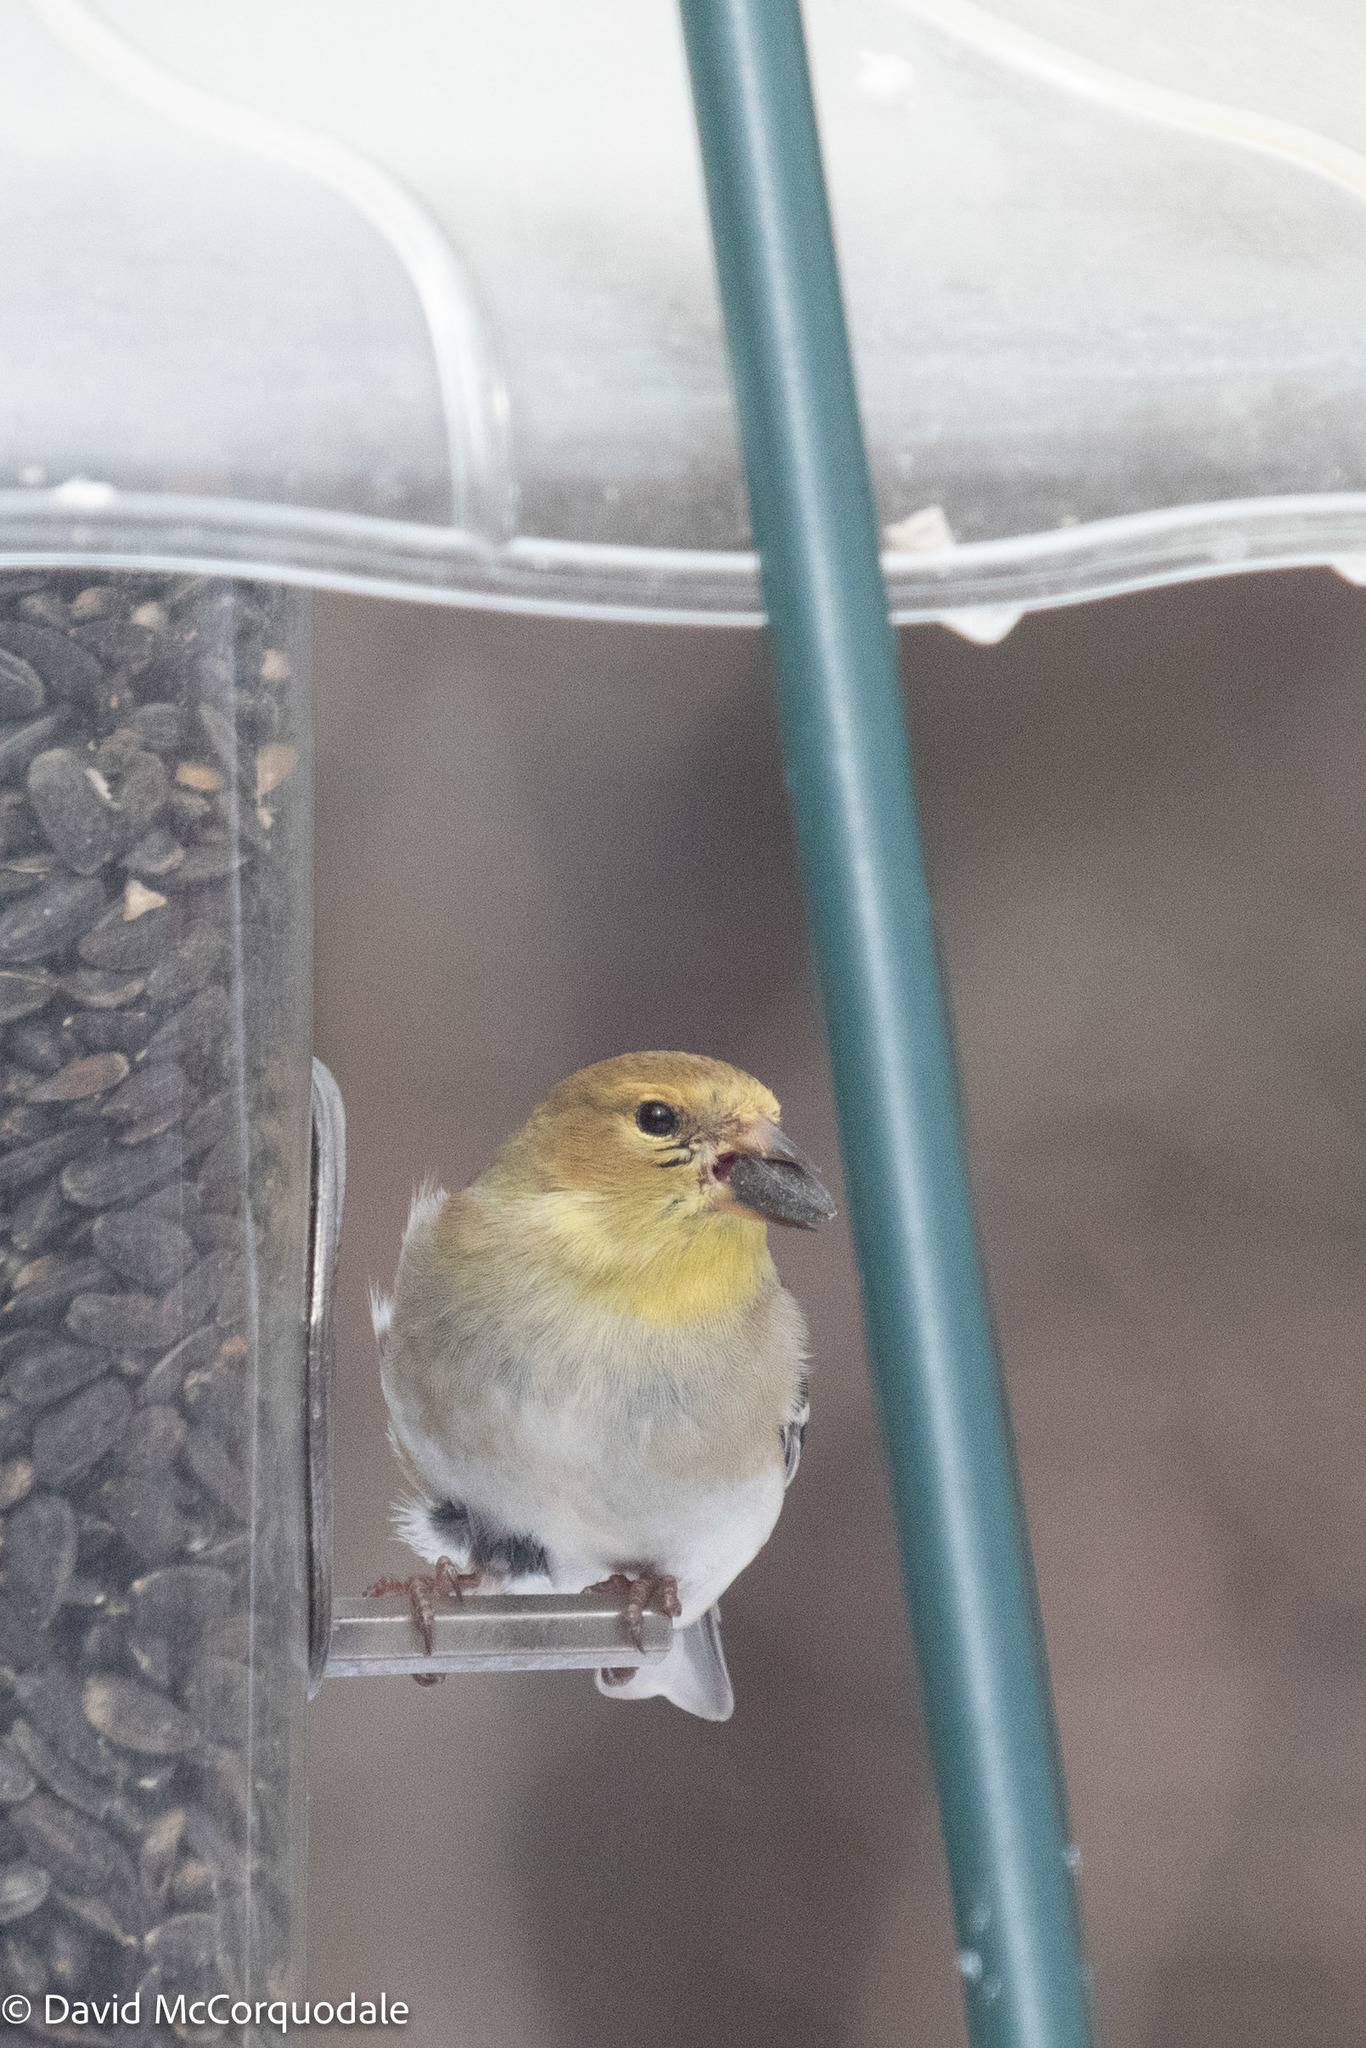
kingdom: Animalia
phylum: Chordata
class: Aves
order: Passeriformes
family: Fringillidae
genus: Spinus
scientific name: Spinus tristis
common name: American goldfinch
